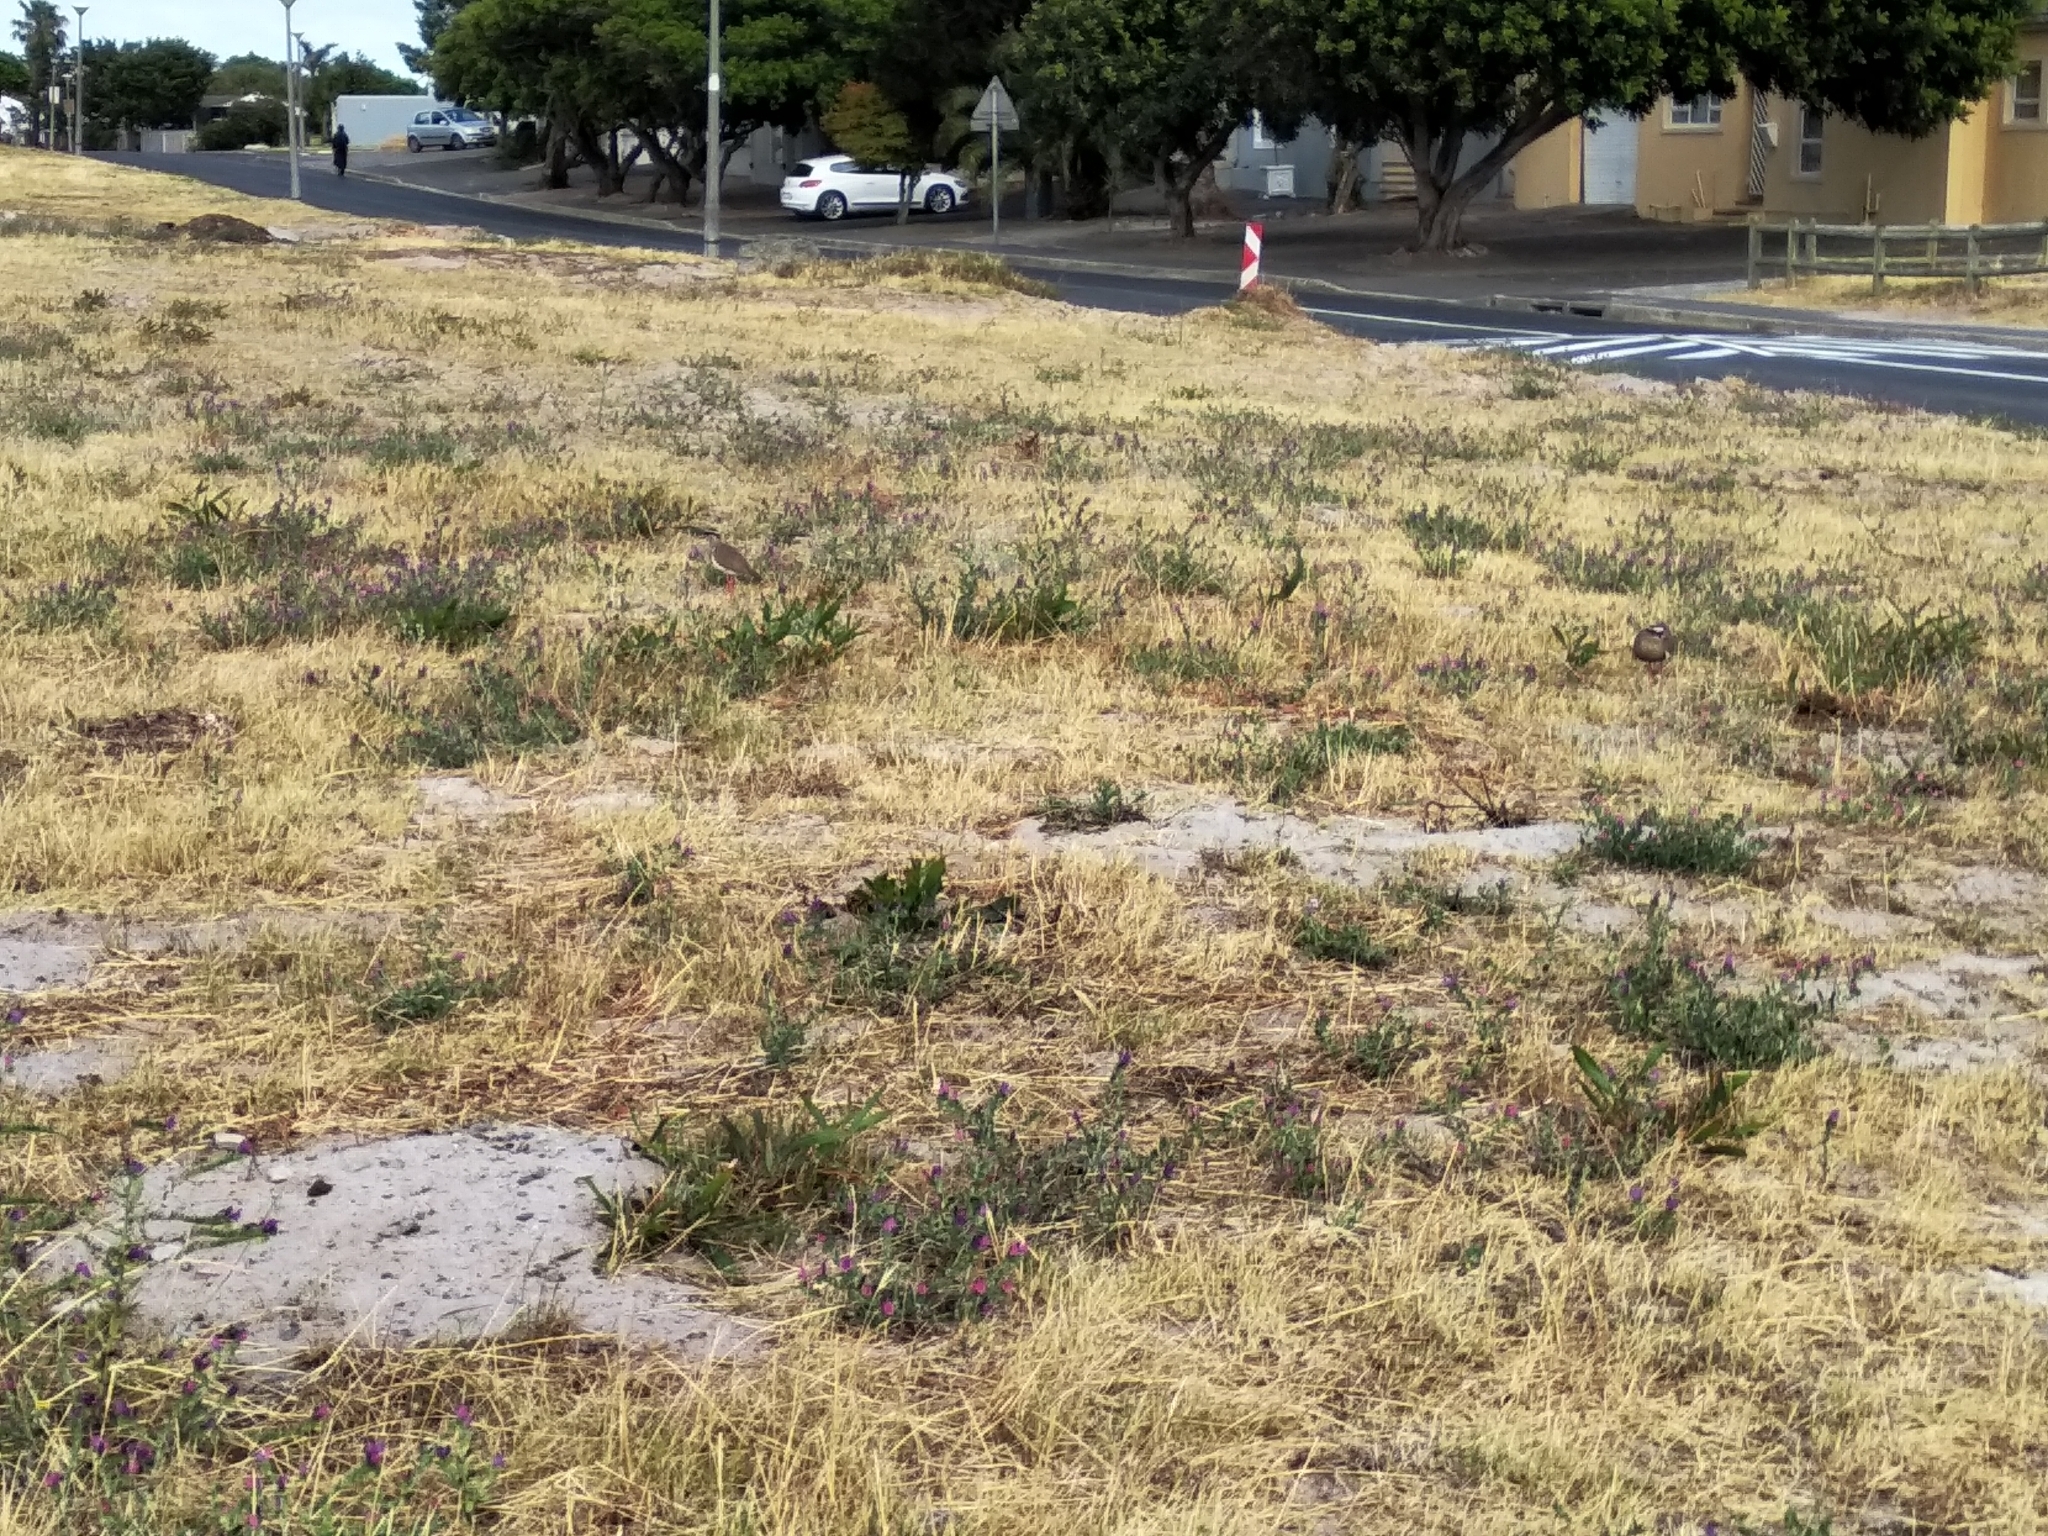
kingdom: Animalia
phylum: Chordata
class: Aves
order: Charadriiformes
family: Charadriidae
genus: Vanellus
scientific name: Vanellus coronatus
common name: Crowned lapwing
